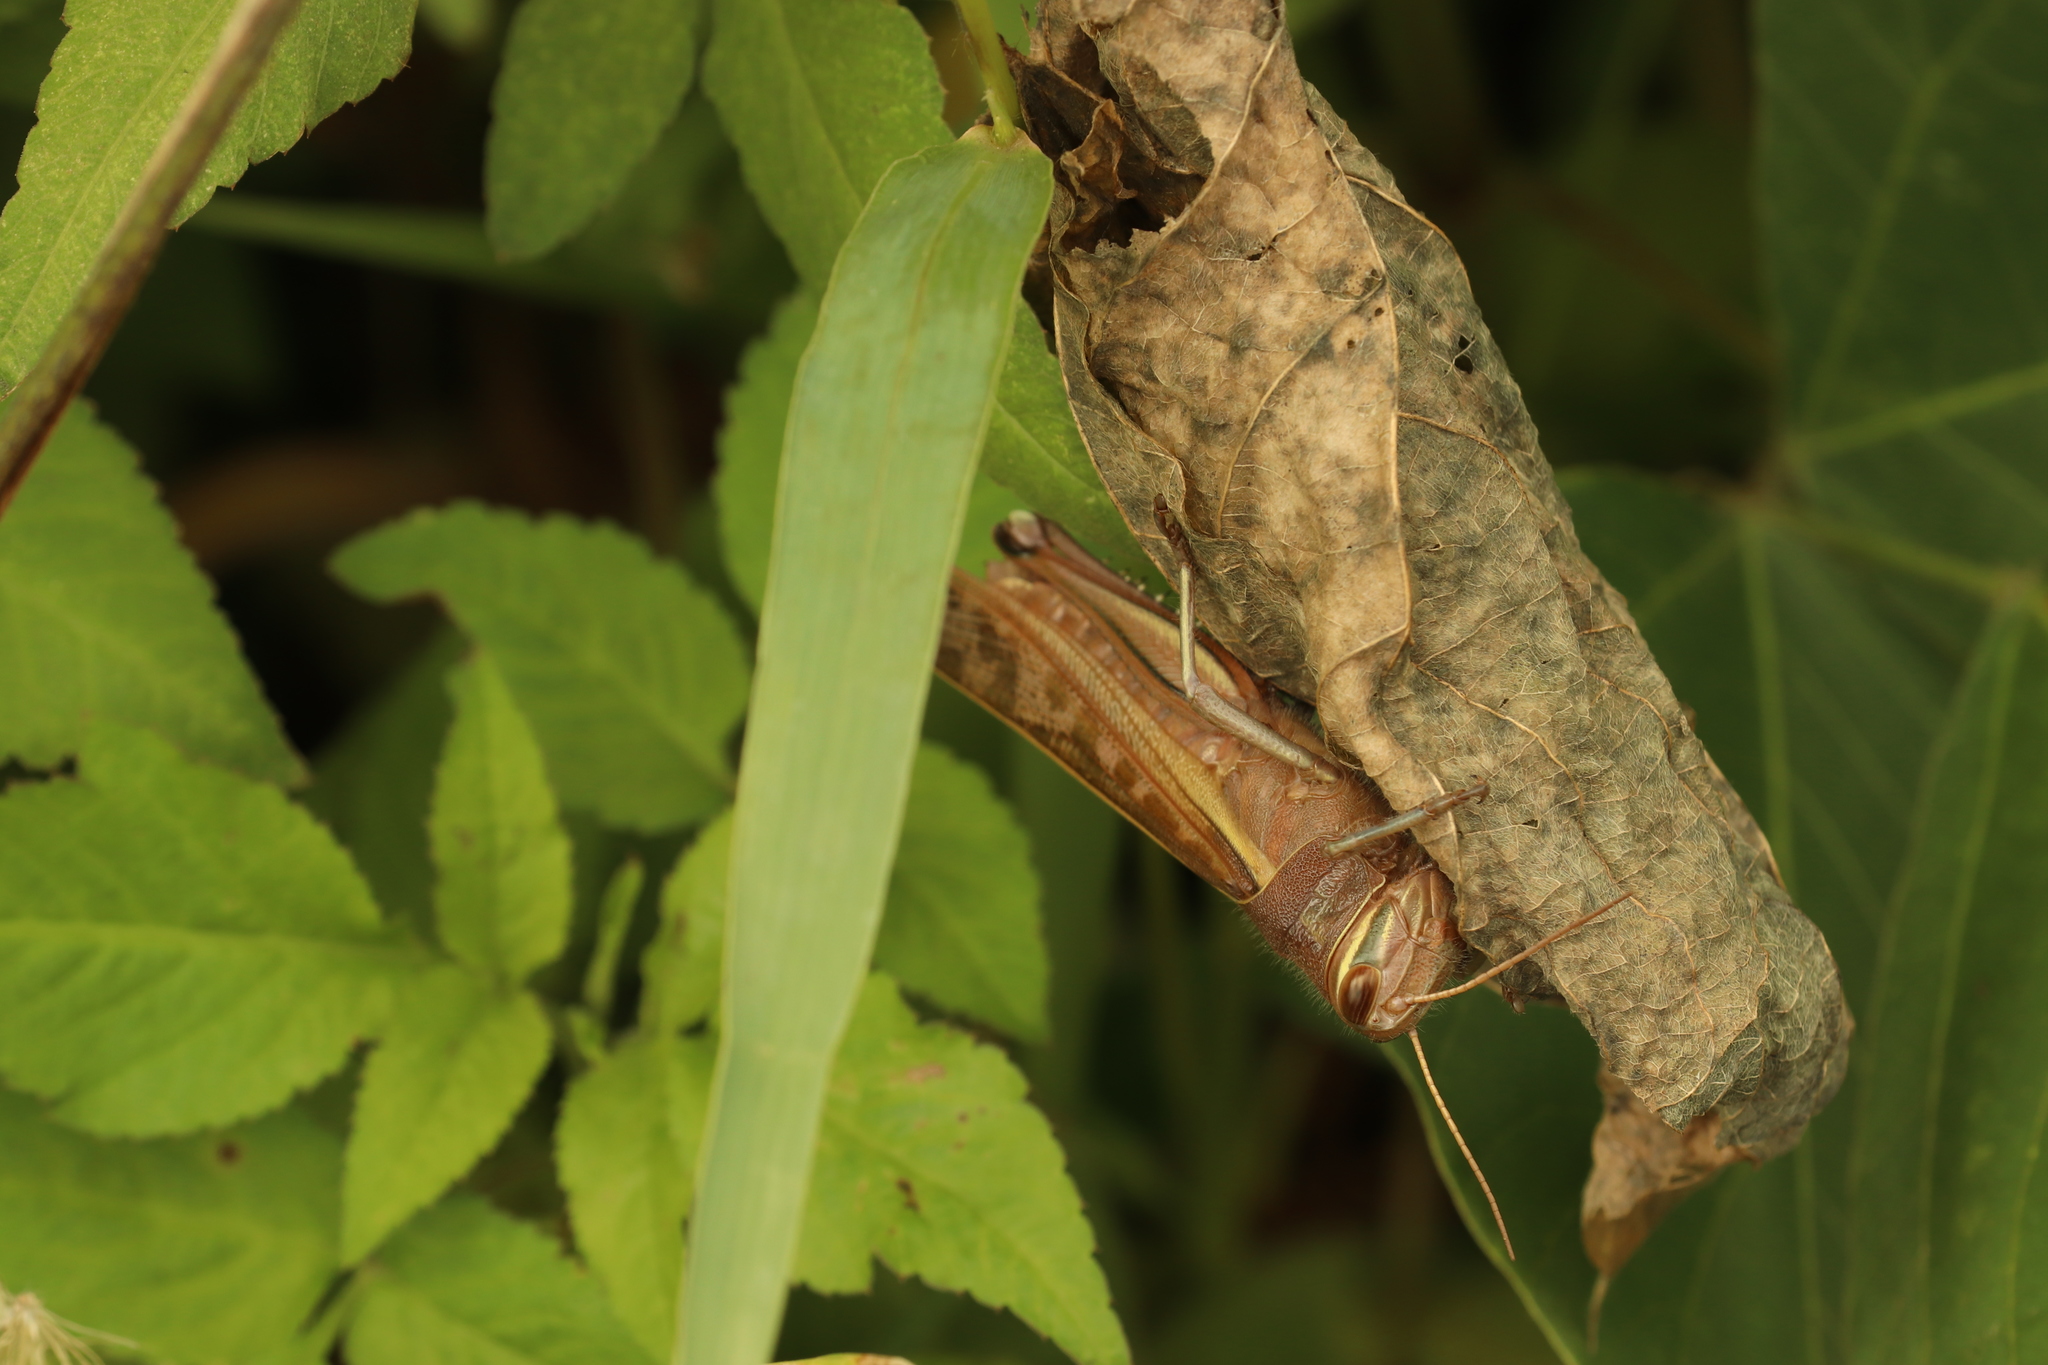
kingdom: Animalia
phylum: Arthropoda
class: Insecta
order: Orthoptera
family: Acrididae
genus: Patanga
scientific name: Patanga japonica
